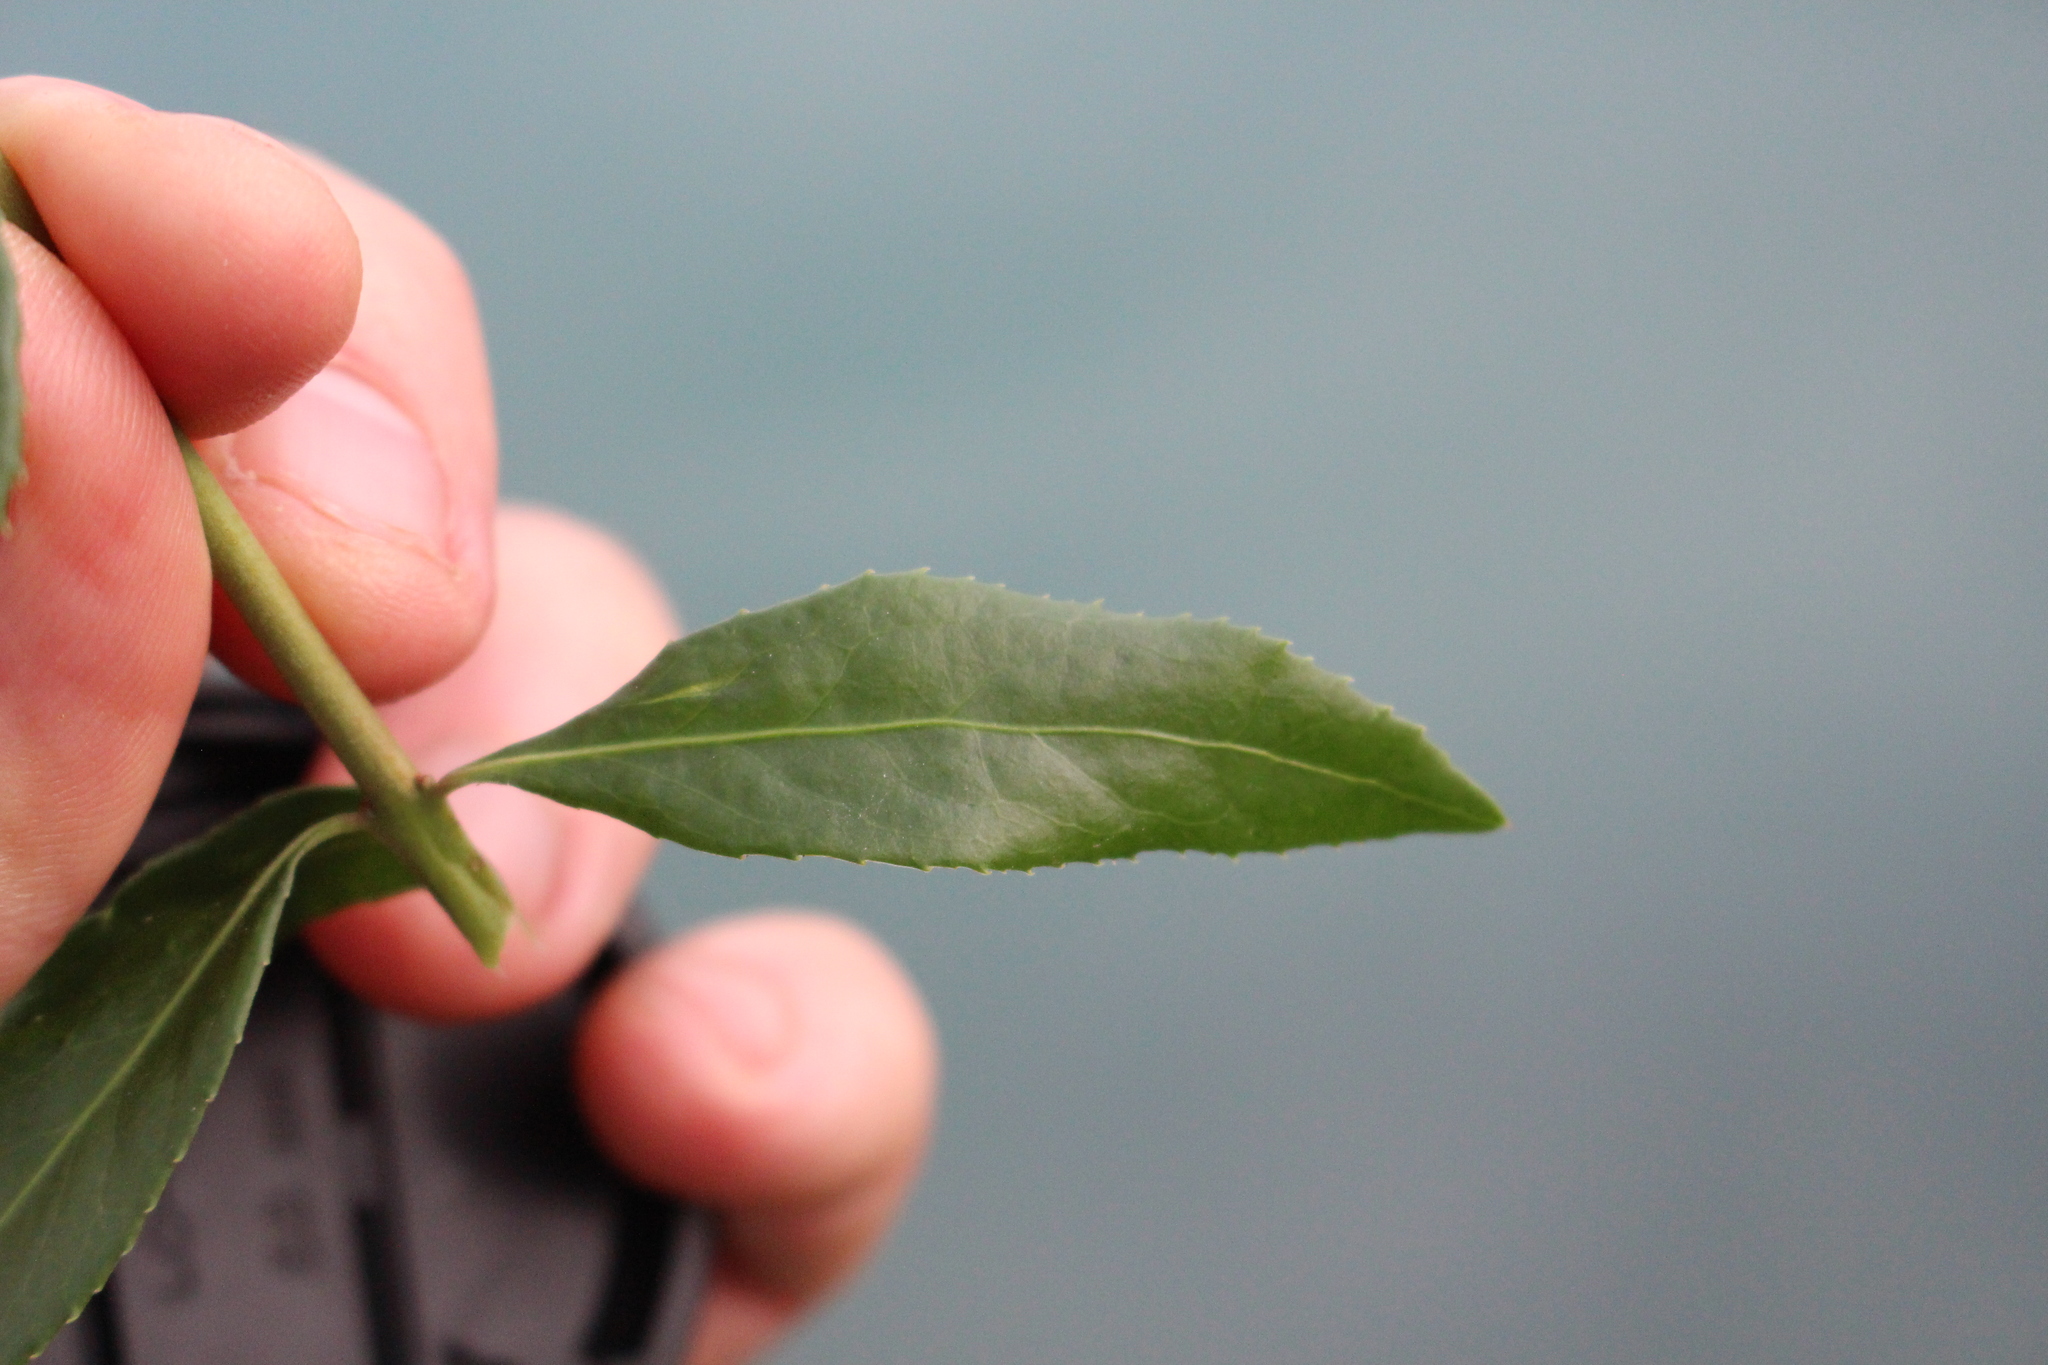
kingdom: Plantae
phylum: Tracheophyta
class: Magnoliopsida
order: Celastrales
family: Celastraceae
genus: Maytenus
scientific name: Maytenus boaria
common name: Mayten
